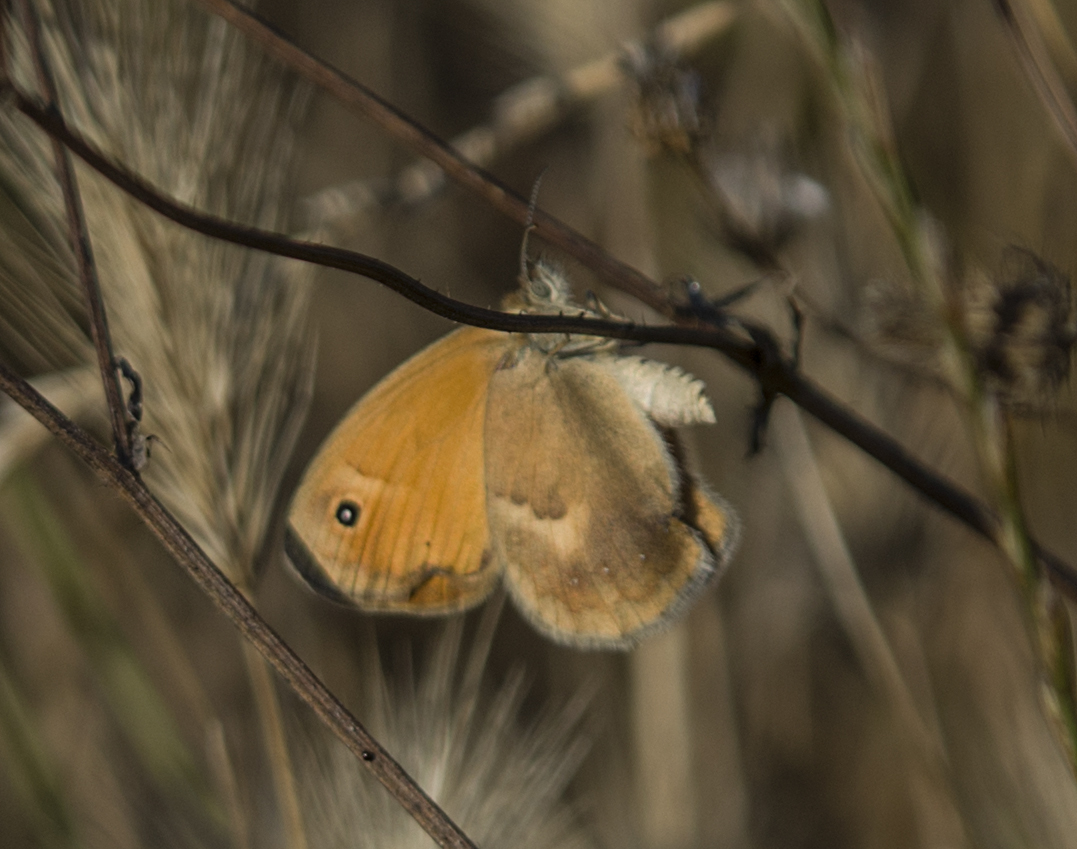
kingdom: Animalia
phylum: Arthropoda
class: Insecta
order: Lepidoptera
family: Nymphalidae
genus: Coenonympha
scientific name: Coenonympha pamphilus
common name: Small heath
